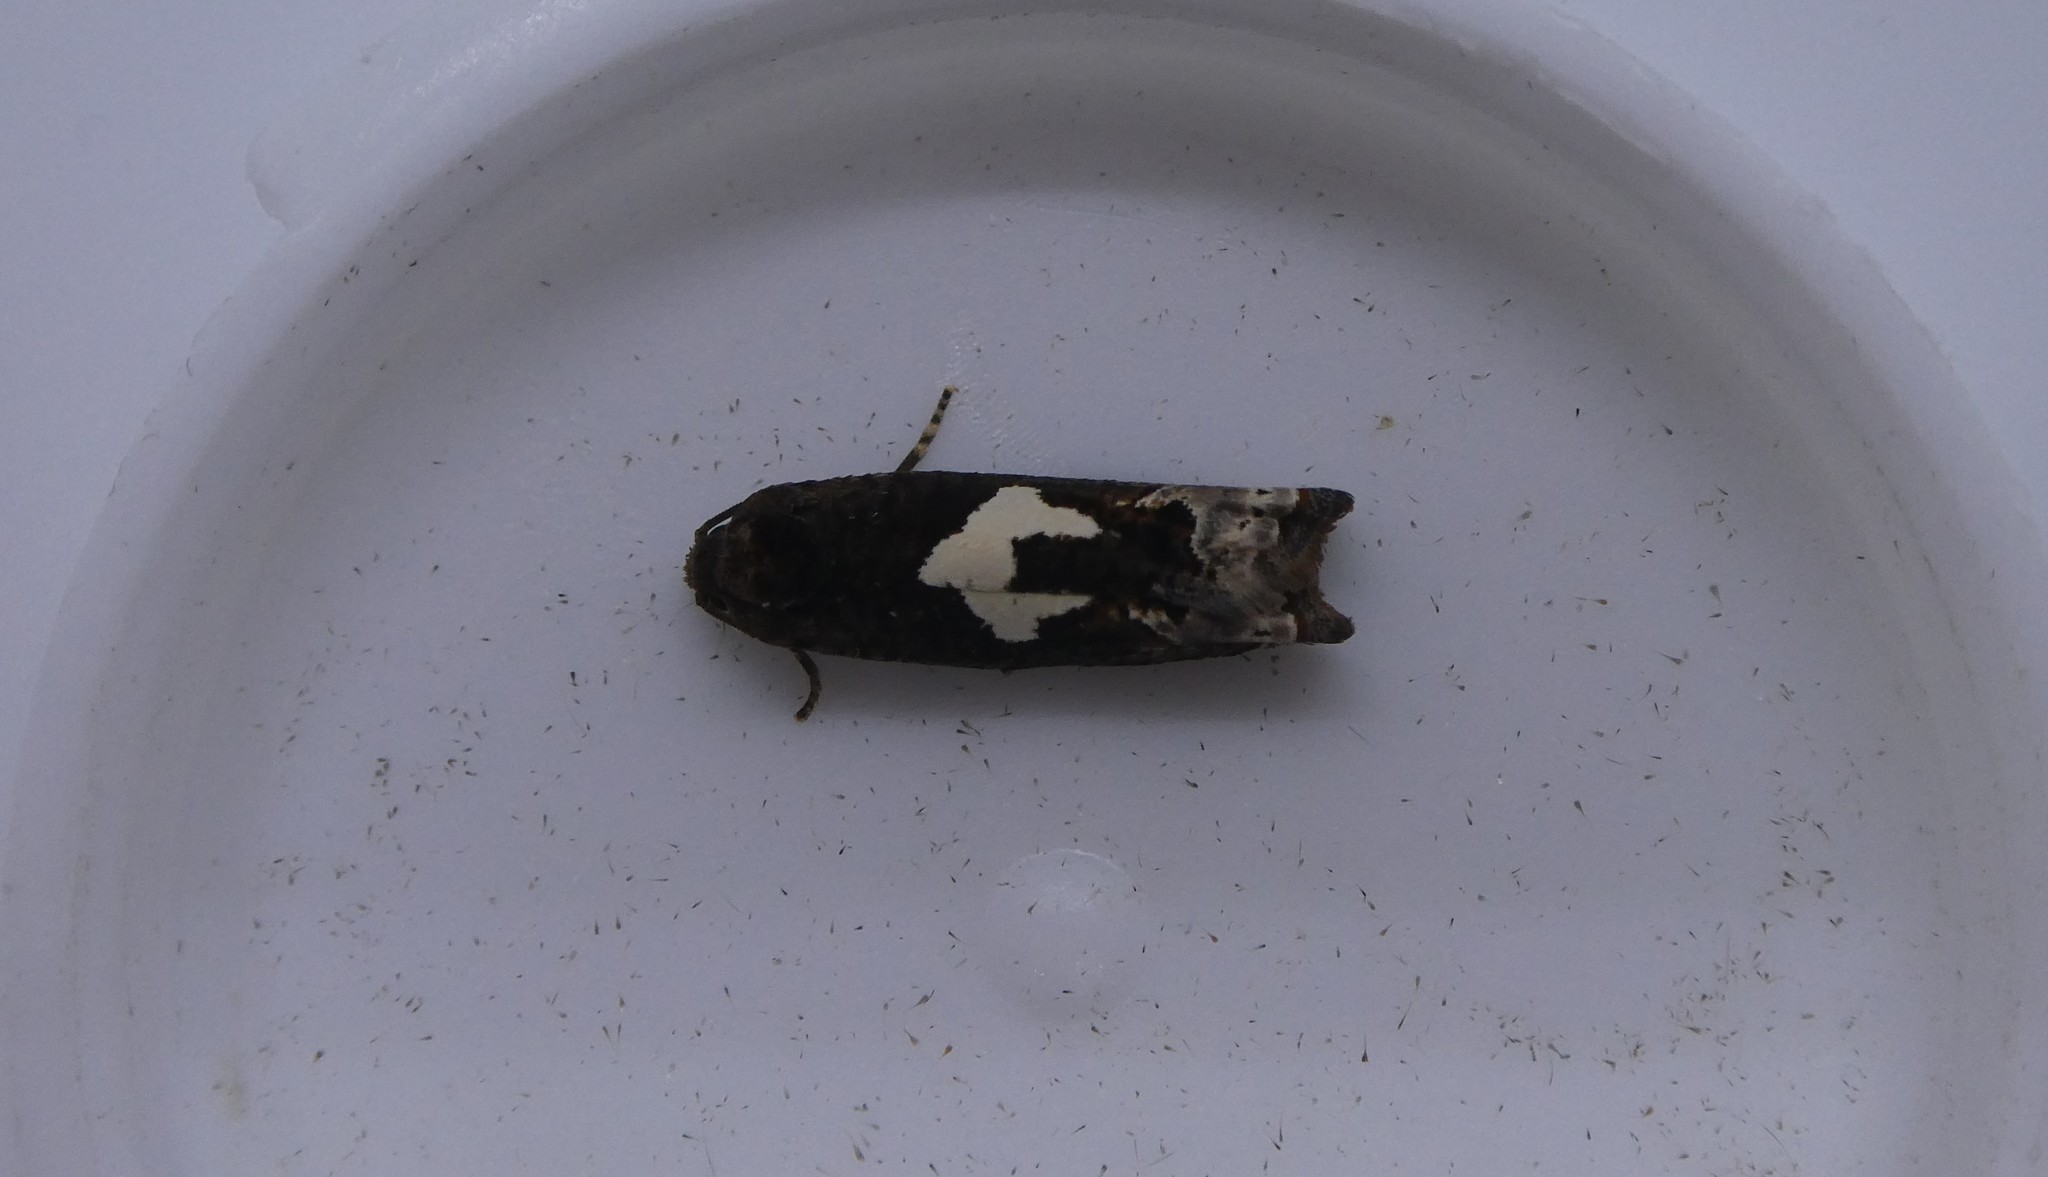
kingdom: Animalia
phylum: Arthropoda
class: Insecta
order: Lepidoptera
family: Tortricidae
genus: Epiblema
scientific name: Epiblema otiosana
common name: Bidens borer moth
